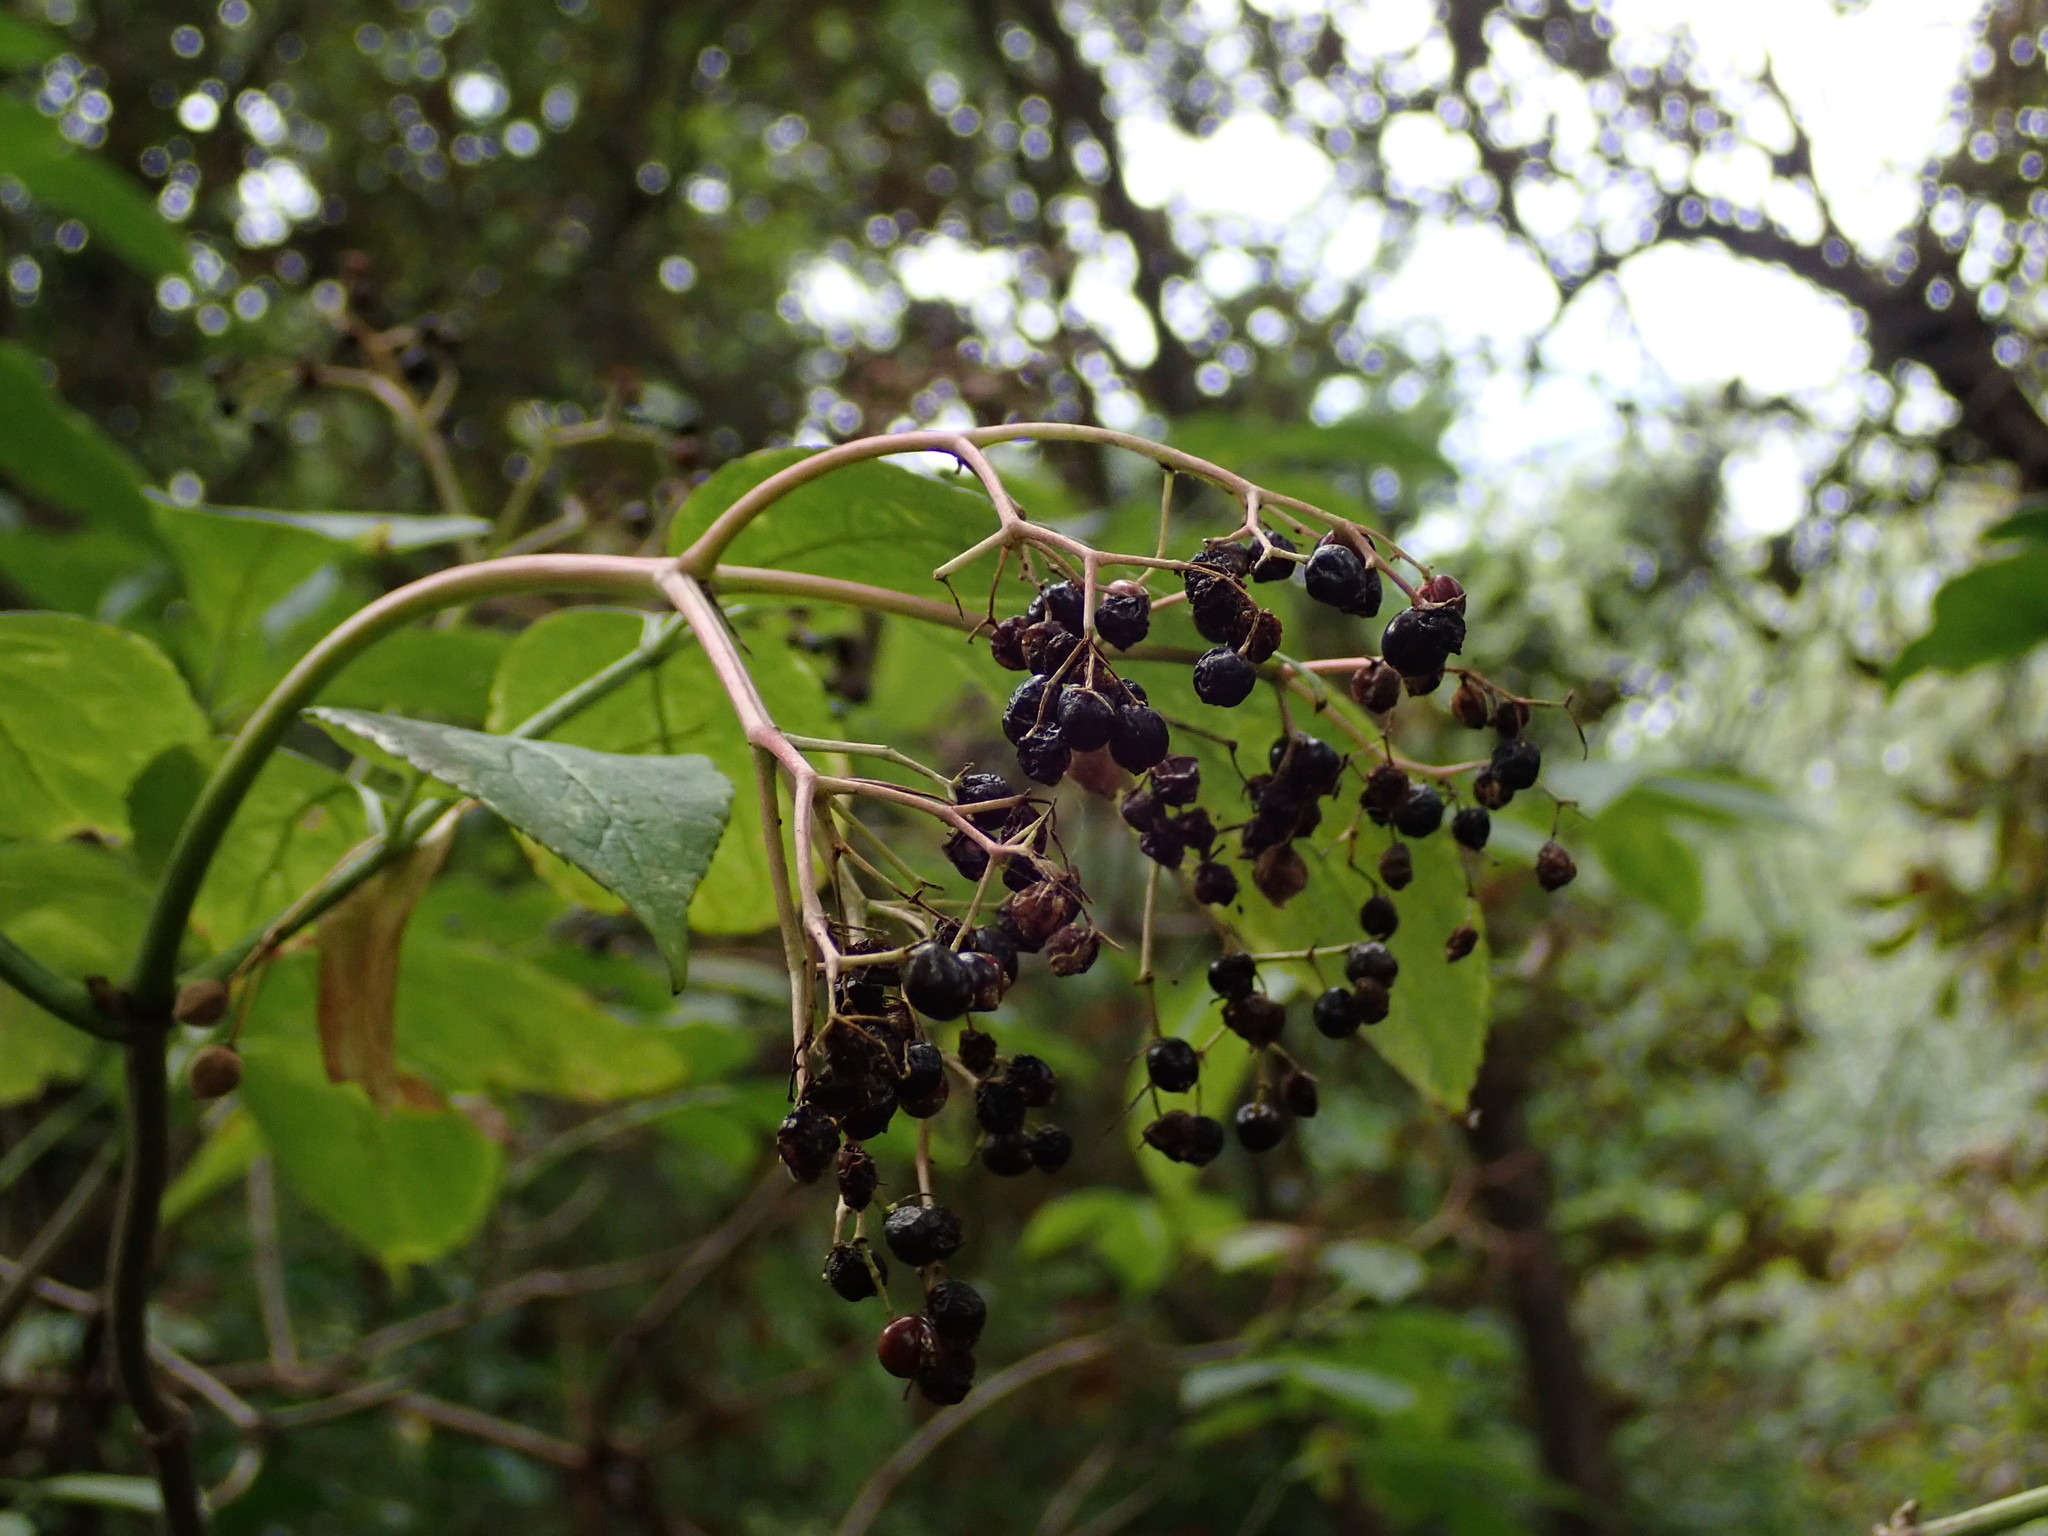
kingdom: Plantae
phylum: Tracheophyta
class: Magnoliopsida
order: Dipsacales
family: Viburnaceae
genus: Sambucus
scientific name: Sambucus nigra
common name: Elder
